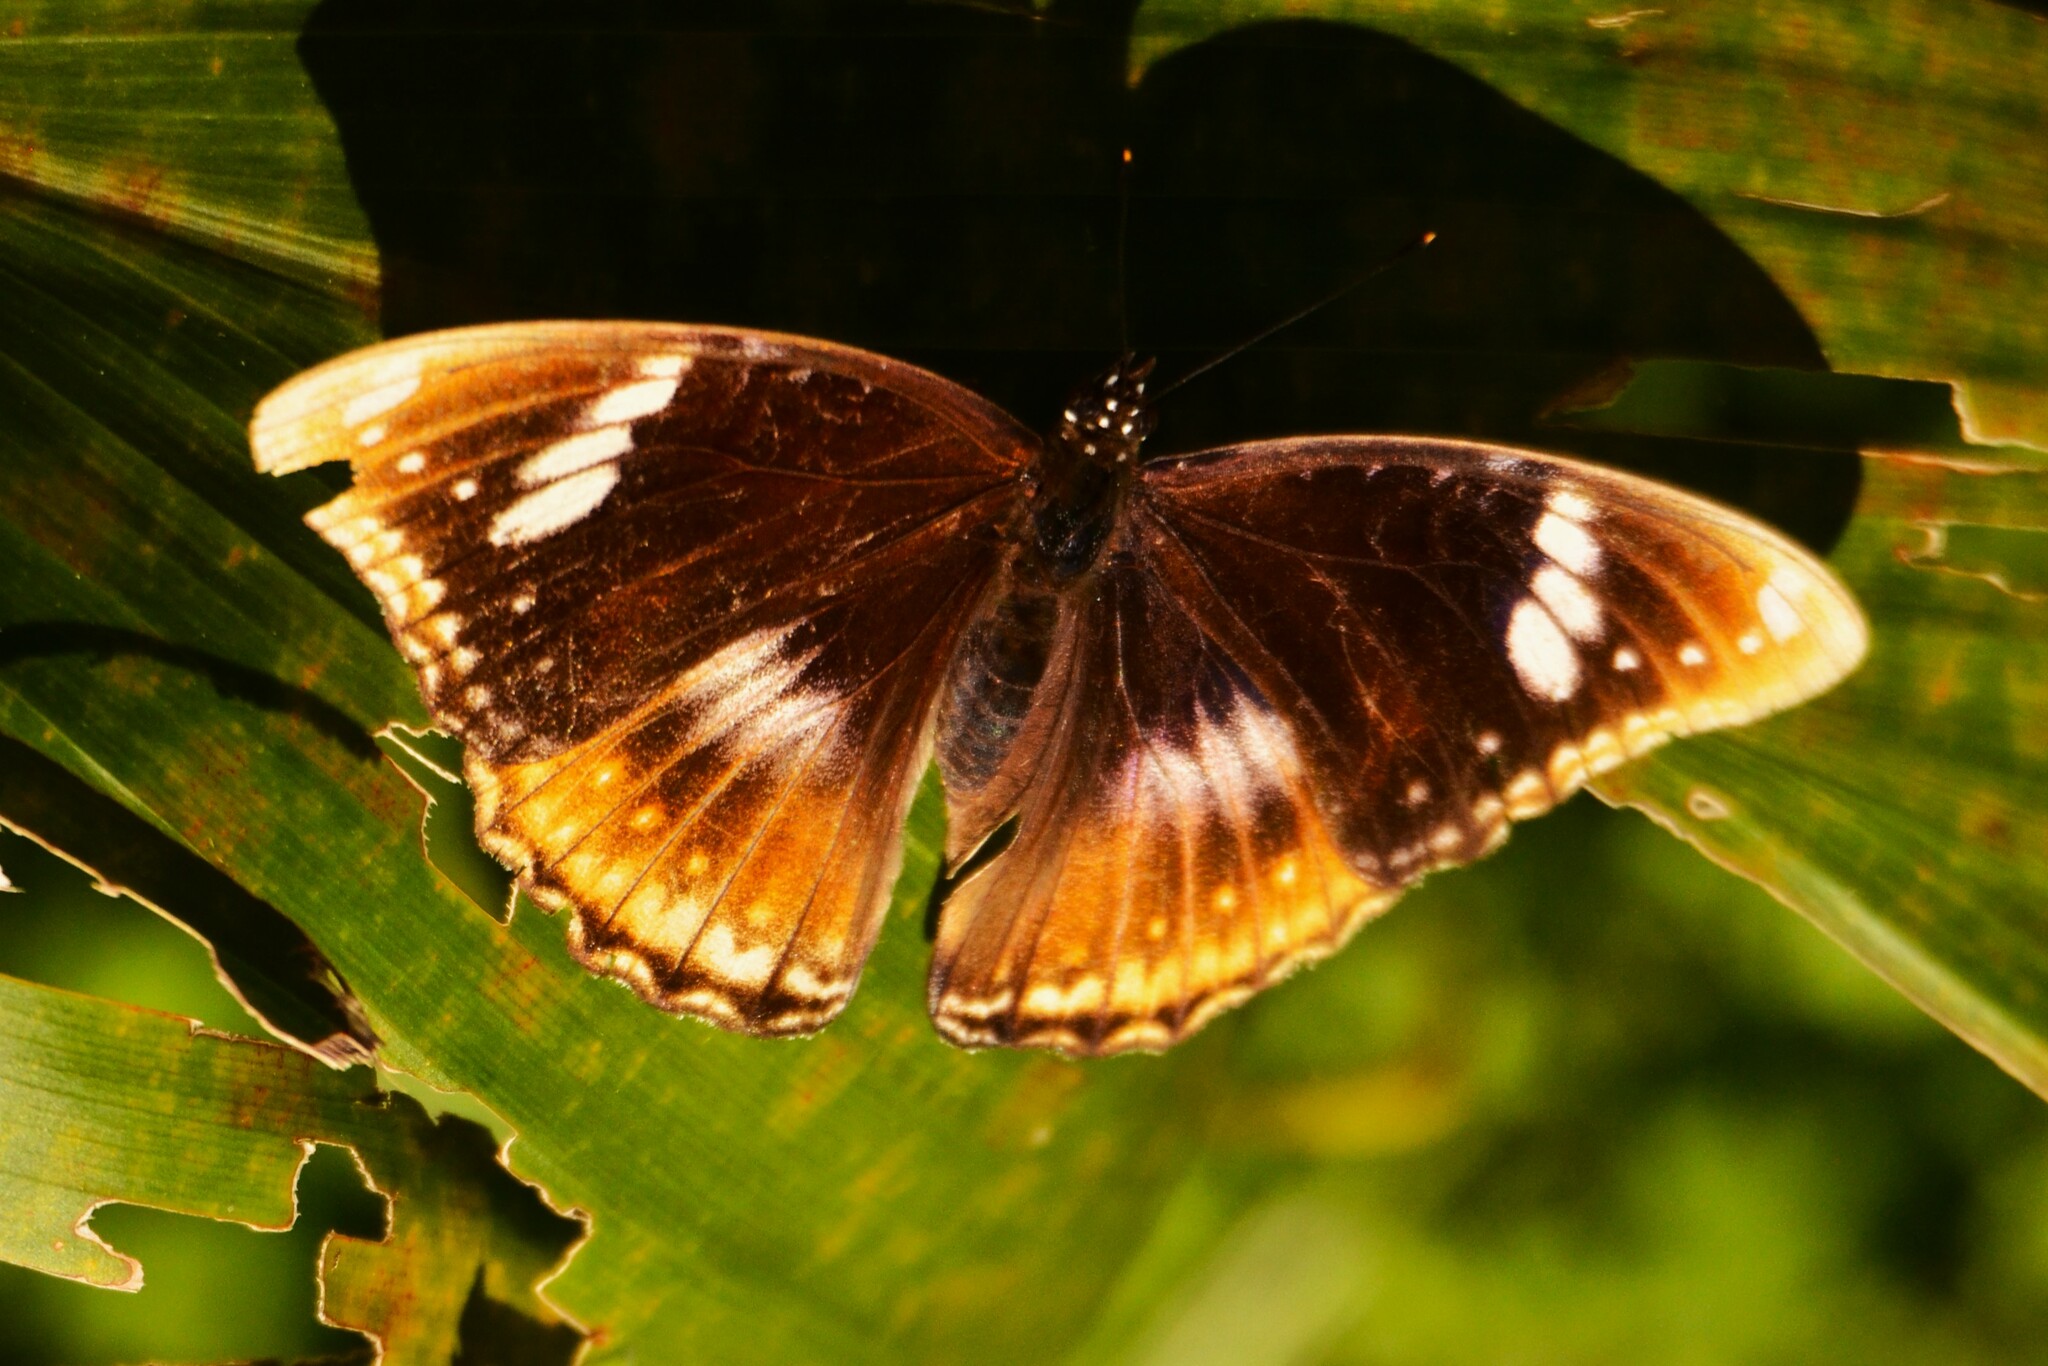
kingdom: Animalia
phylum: Arthropoda
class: Insecta
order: Lepidoptera
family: Nymphalidae
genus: Hypolimnas
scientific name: Hypolimnas bolina
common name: Great eggfly
